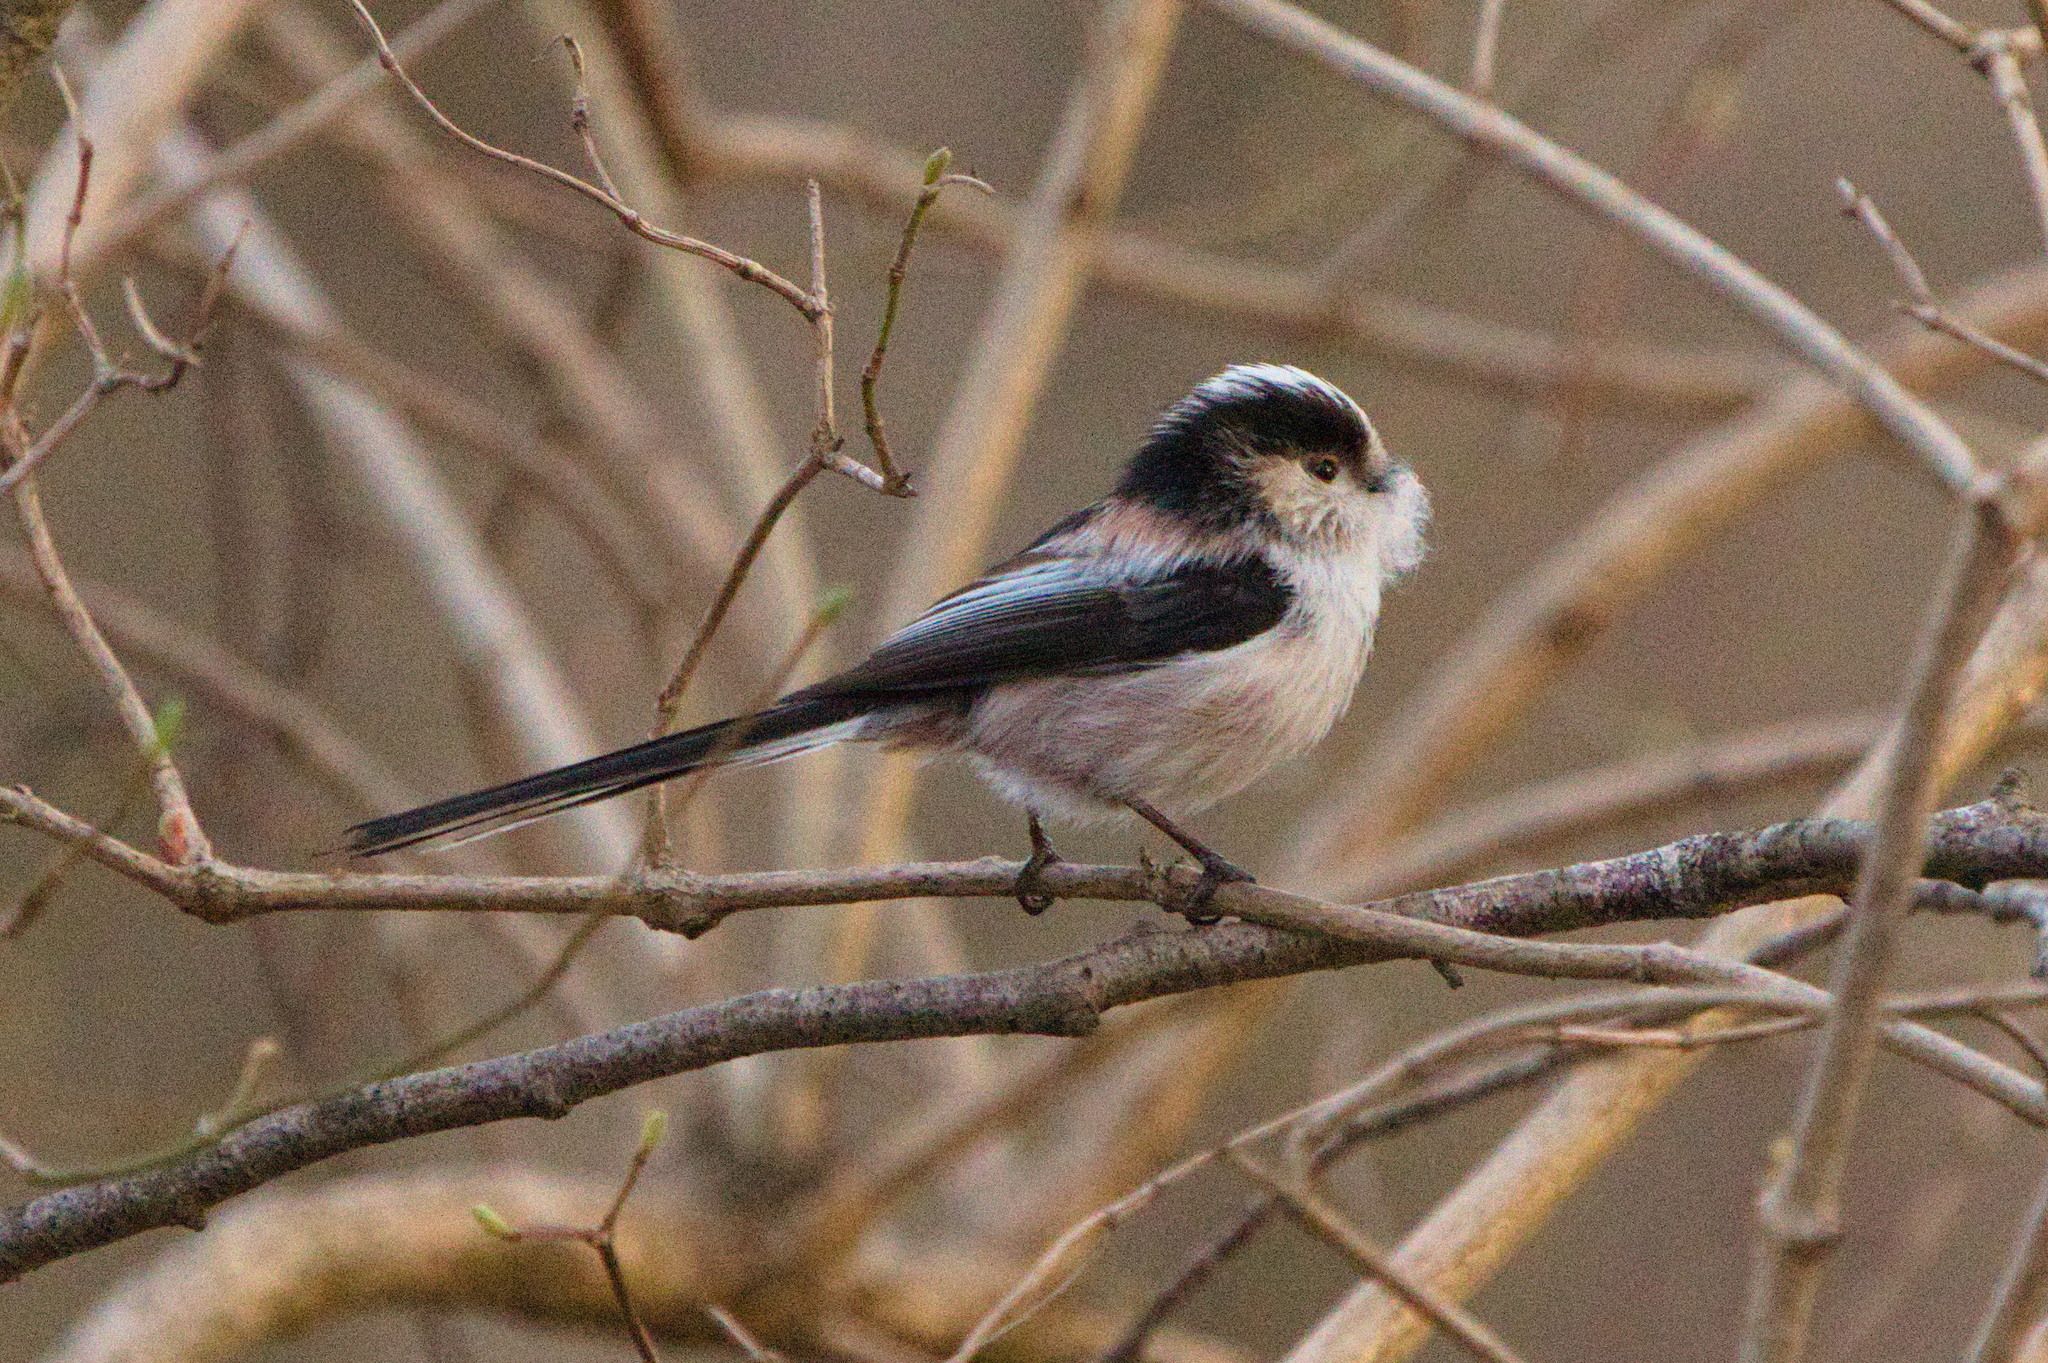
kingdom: Animalia
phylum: Chordata
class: Aves
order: Passeriformes
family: Aegithalidae
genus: Aegithalos
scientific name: Aegithalos caudatus
